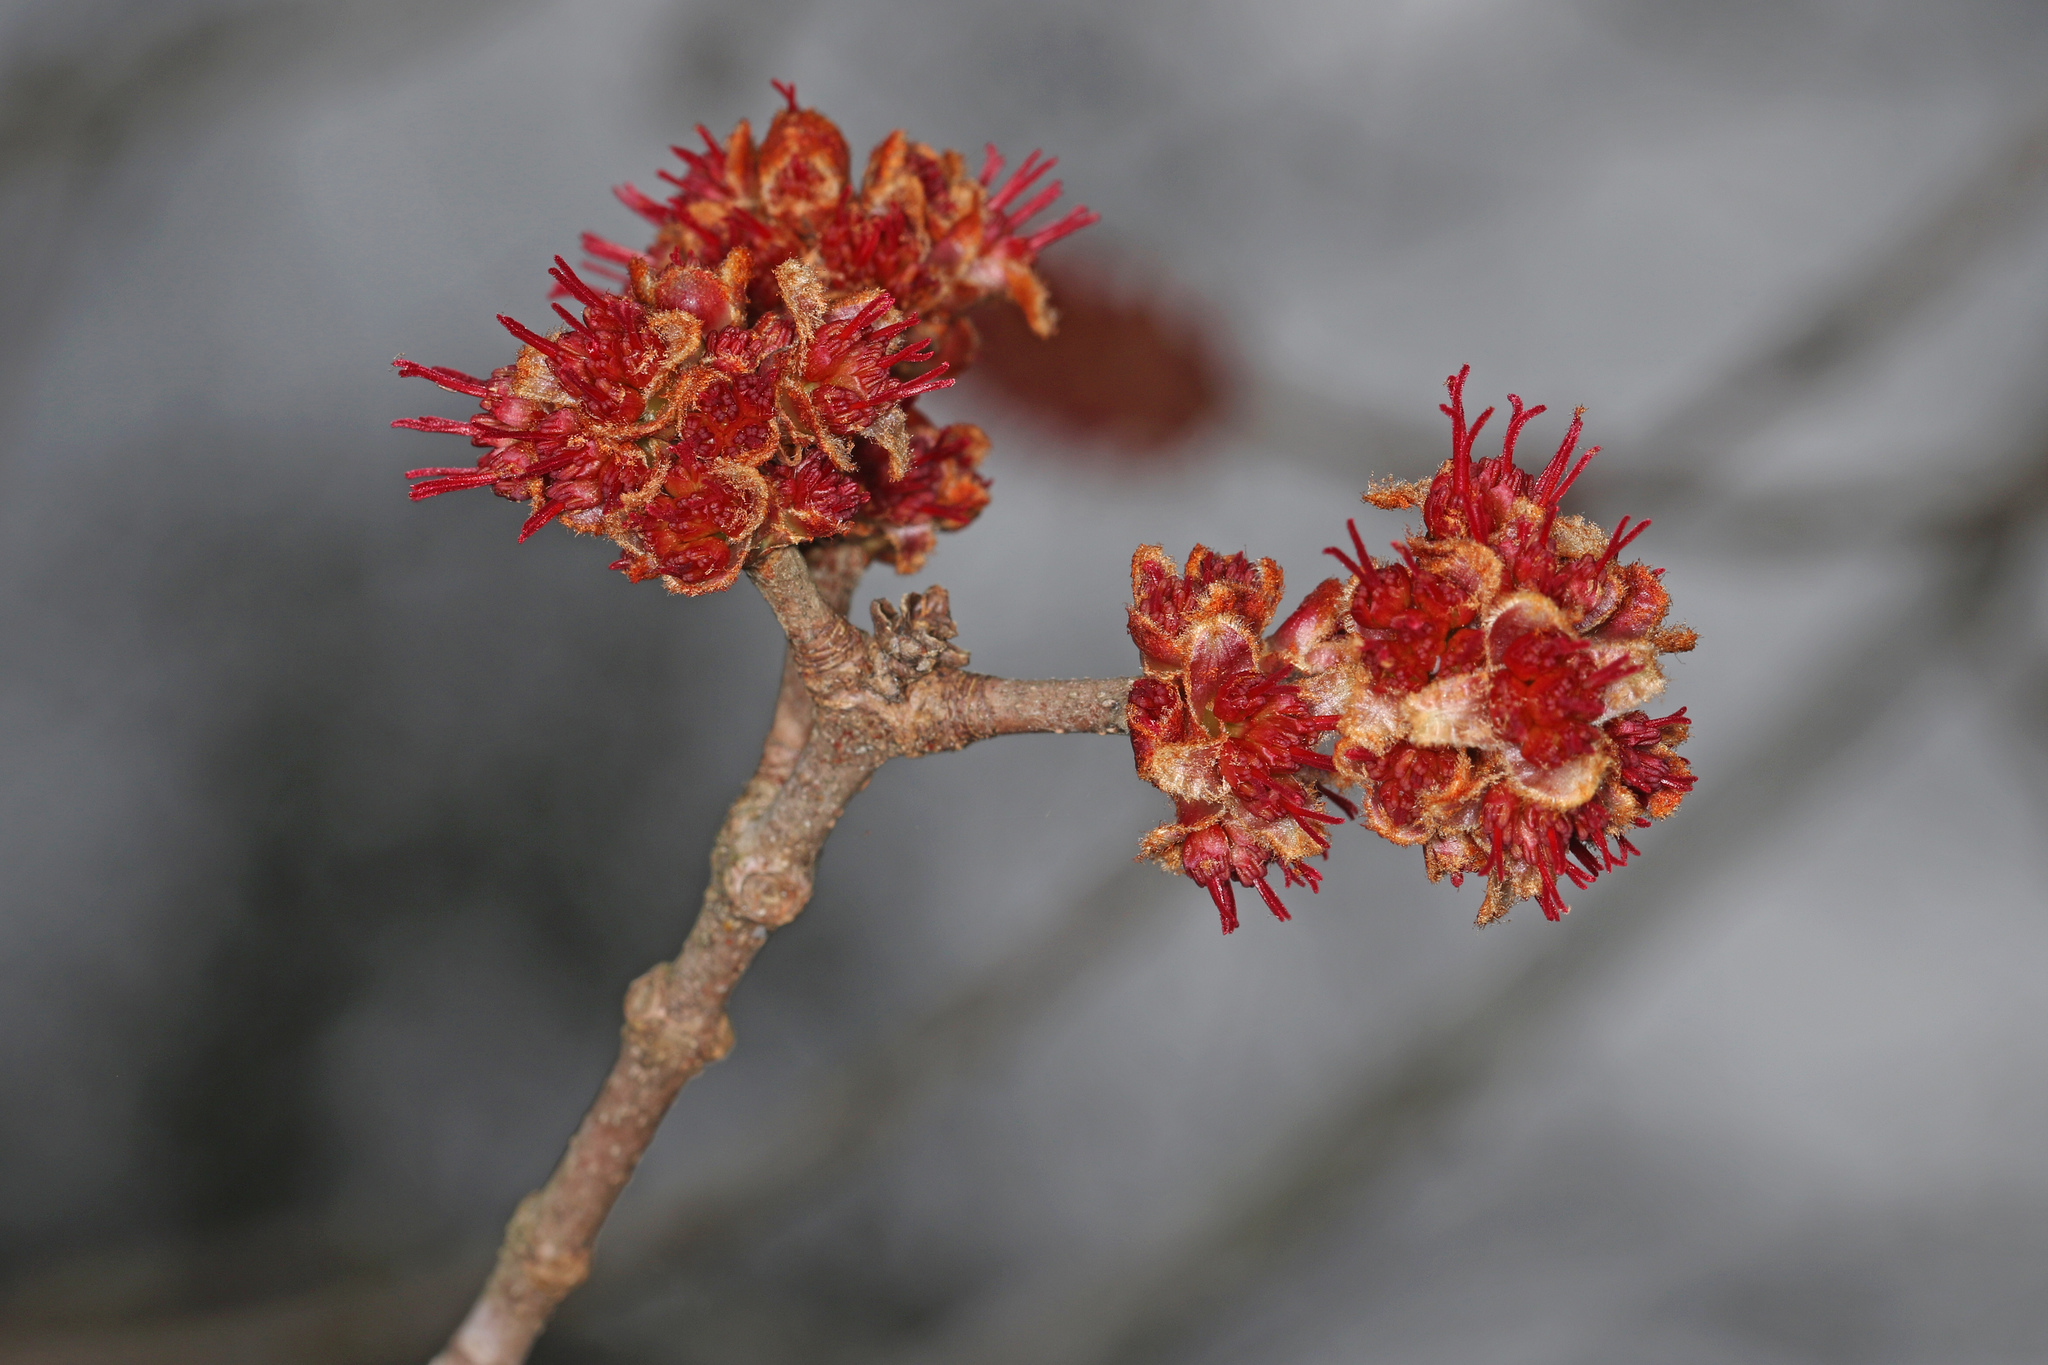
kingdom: Plantae
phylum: Tracheophyta
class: Magnoliopsida
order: Sapindales
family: Sapindaceae
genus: Acer
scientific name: Acer rubrum
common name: Red maple
